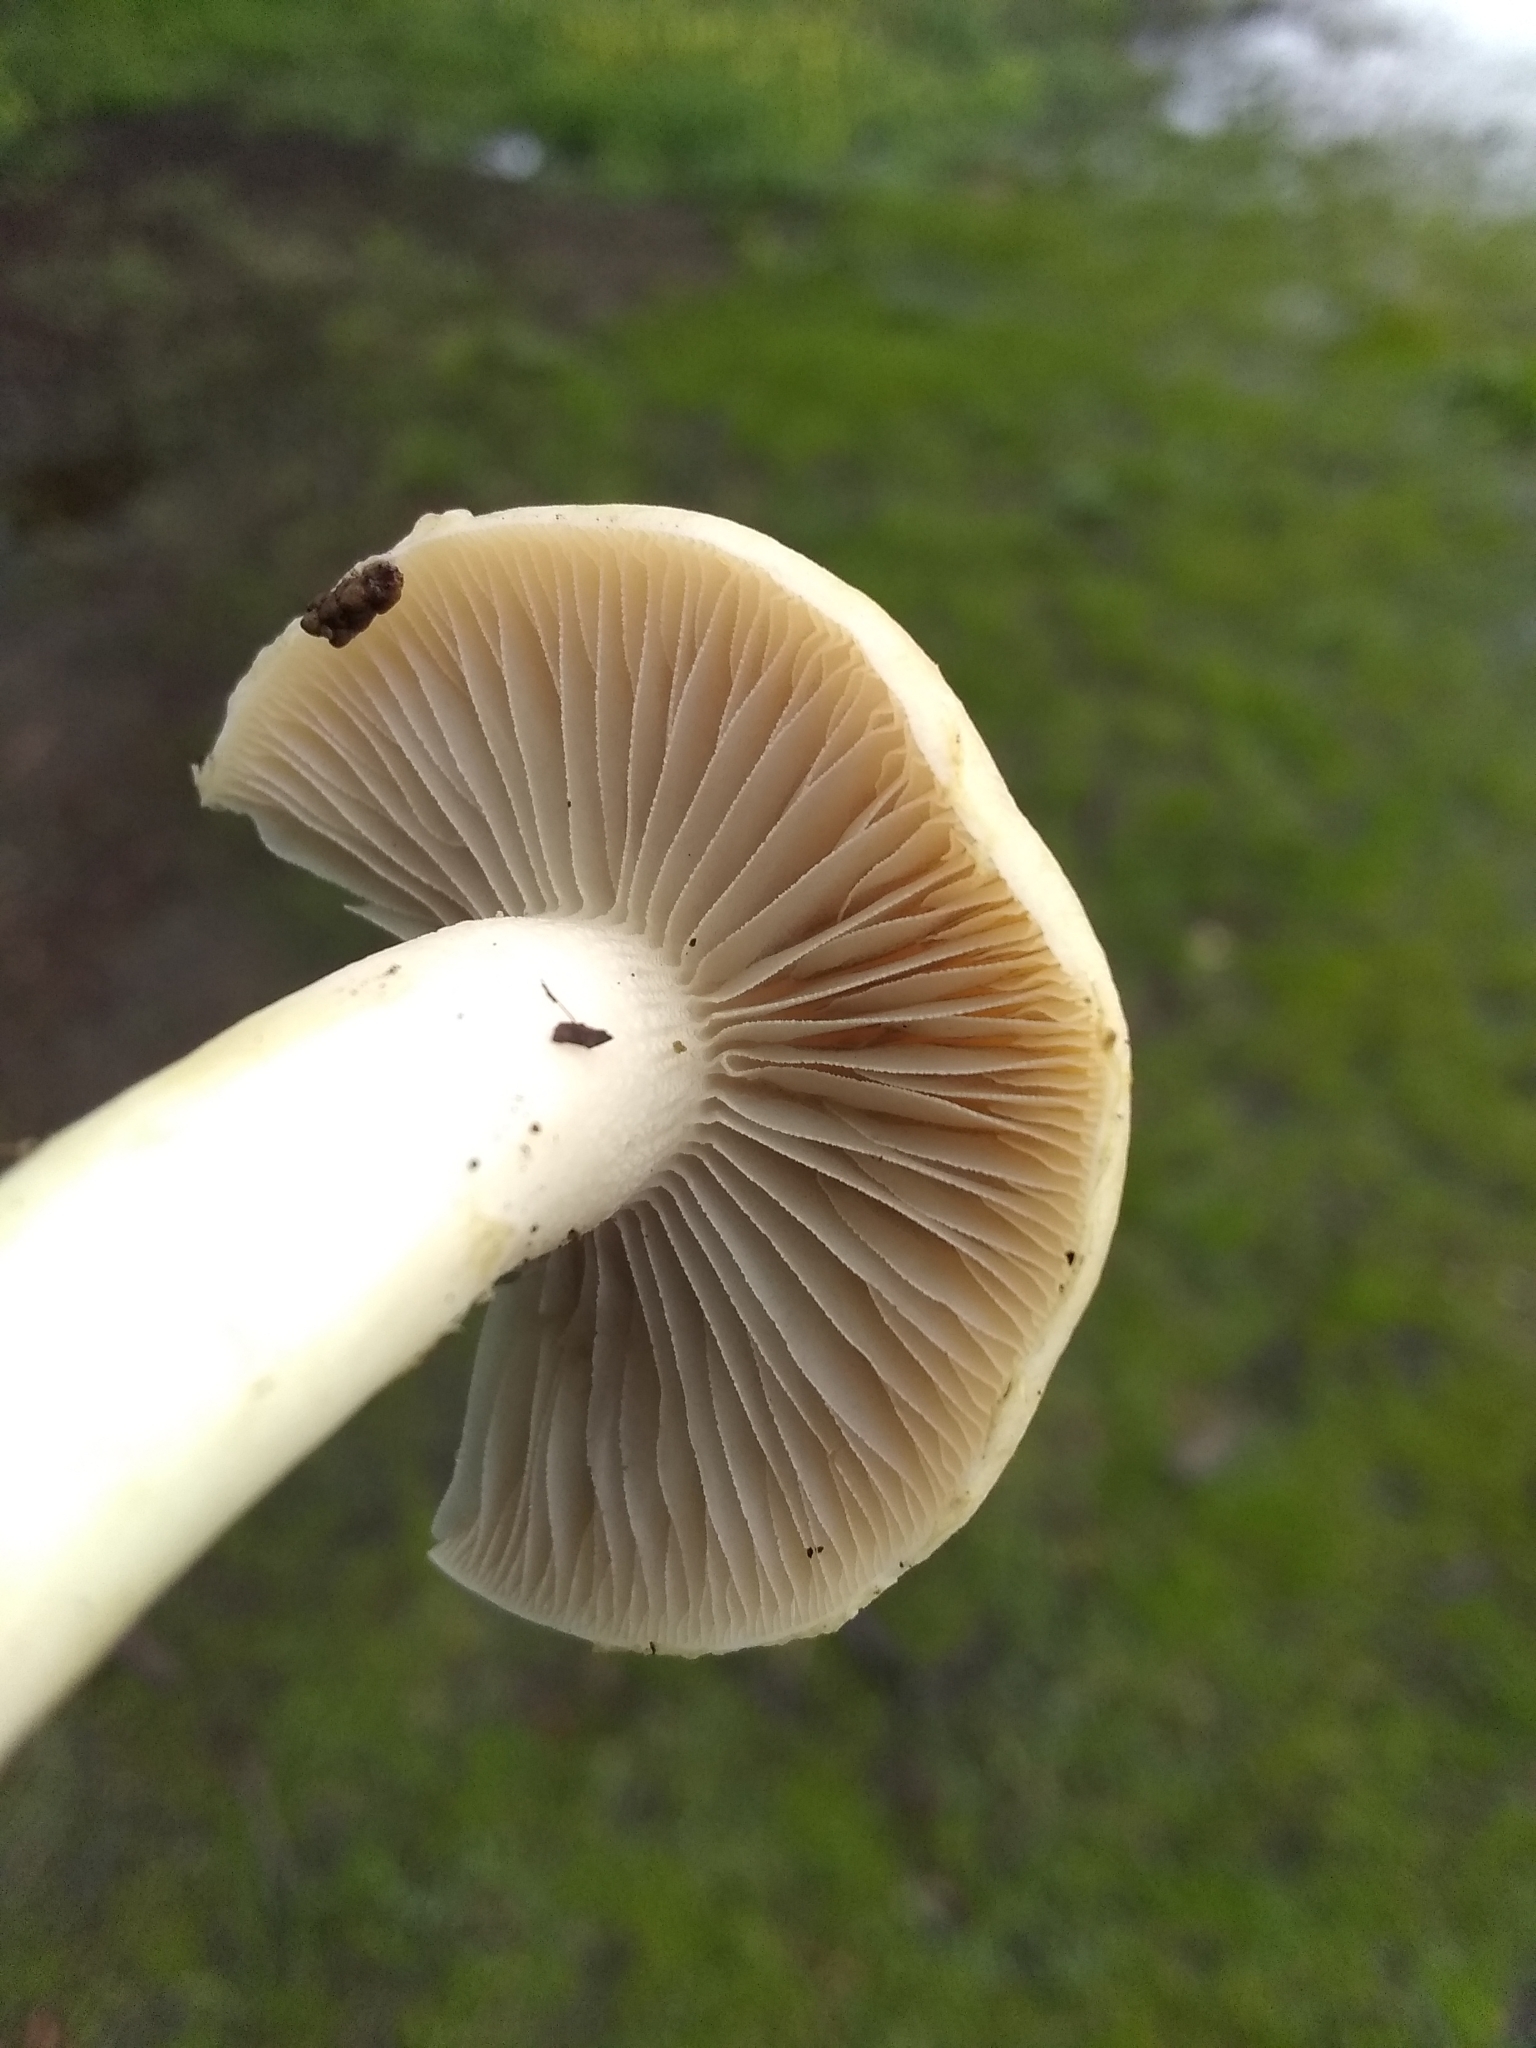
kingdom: Fungi
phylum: Basidiomycota
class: Agaricomycetes
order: Agaricales
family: Strophariaceae
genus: Leratiomyces
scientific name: Leratiomyces percevalii
